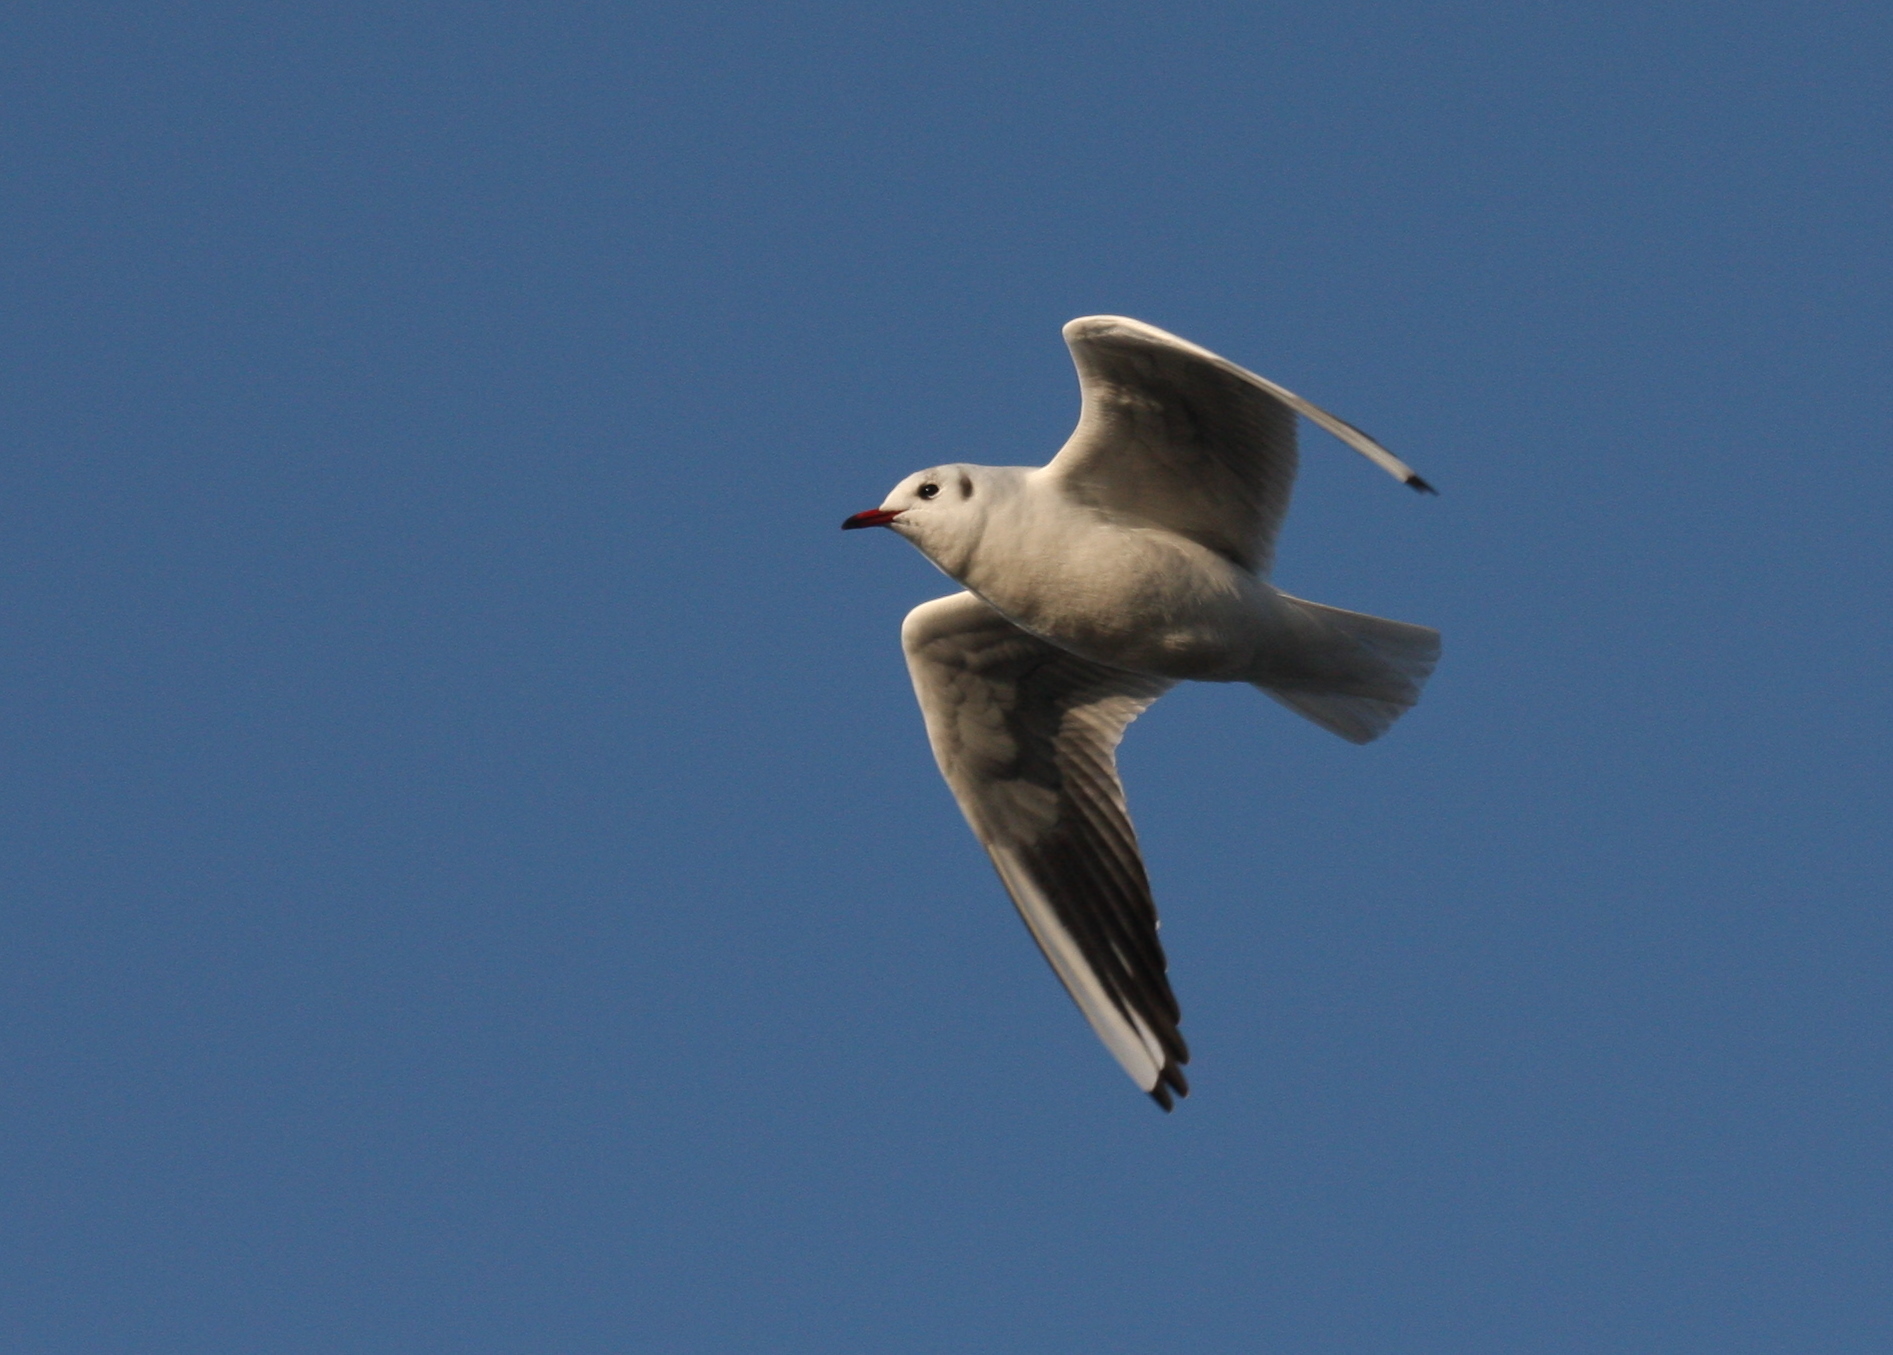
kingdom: Animalia
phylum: Chordata
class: Aves
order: Charadriiformes
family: Laridae
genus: Chroicocephalus
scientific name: Chroicocephalus ridibundus
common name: Black-headed gull
